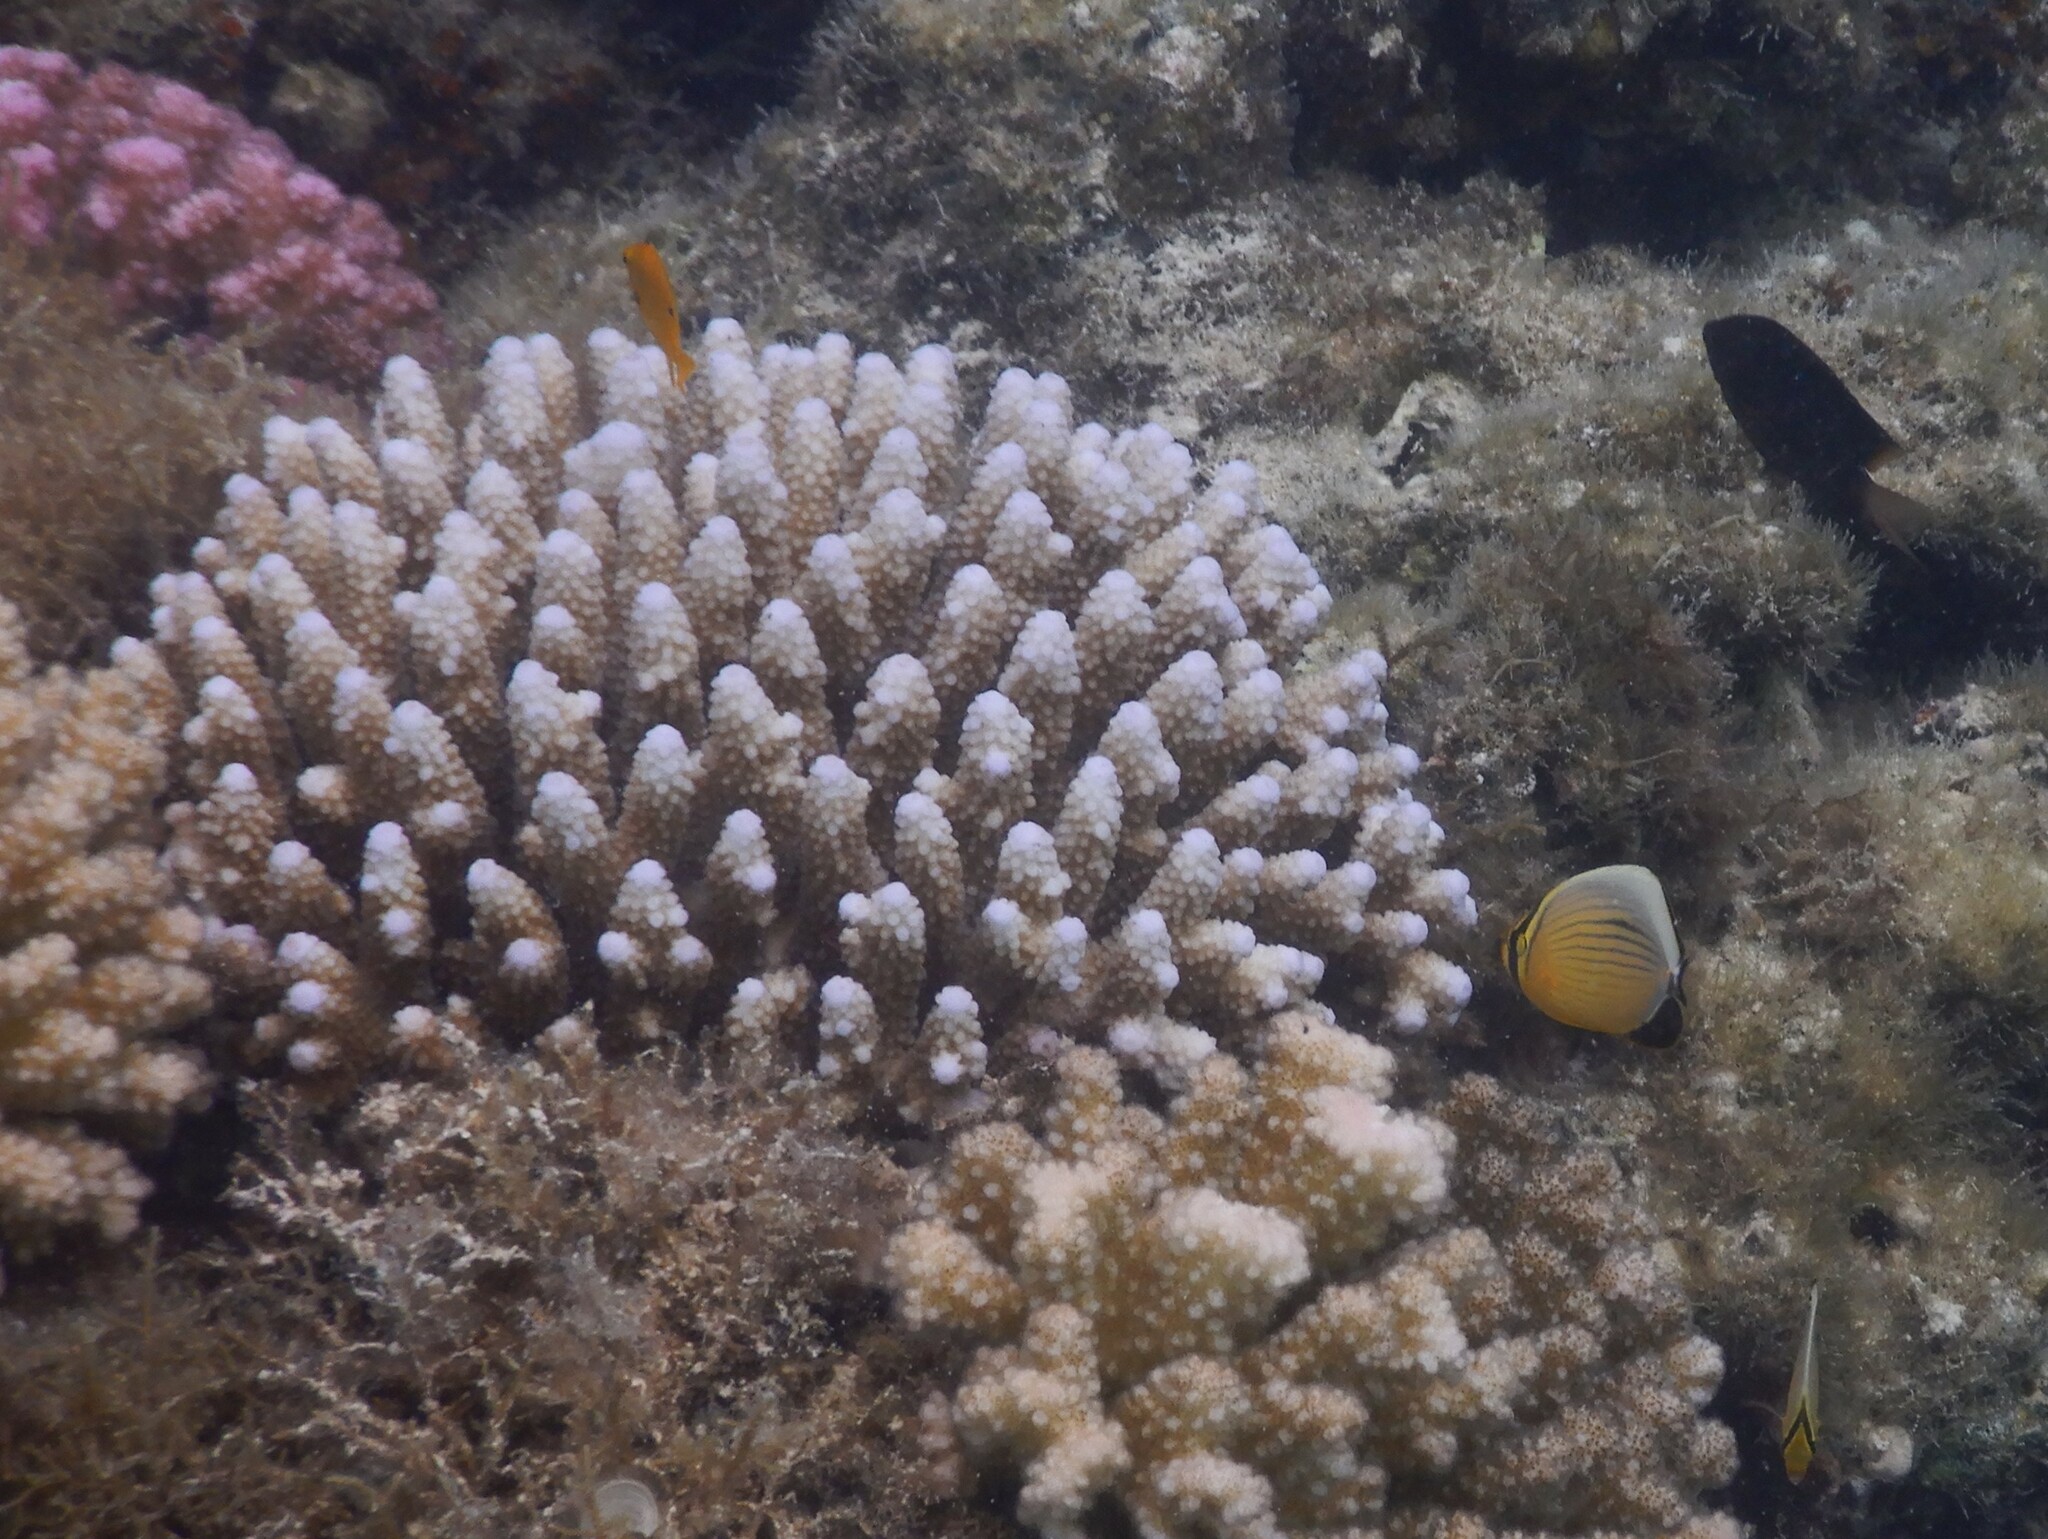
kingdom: Animalia
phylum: Chordata
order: Perciformes
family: Chaetodontidae
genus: Chaetodon
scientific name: Chaetodon austriacus
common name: Exquisite butterflyfish
